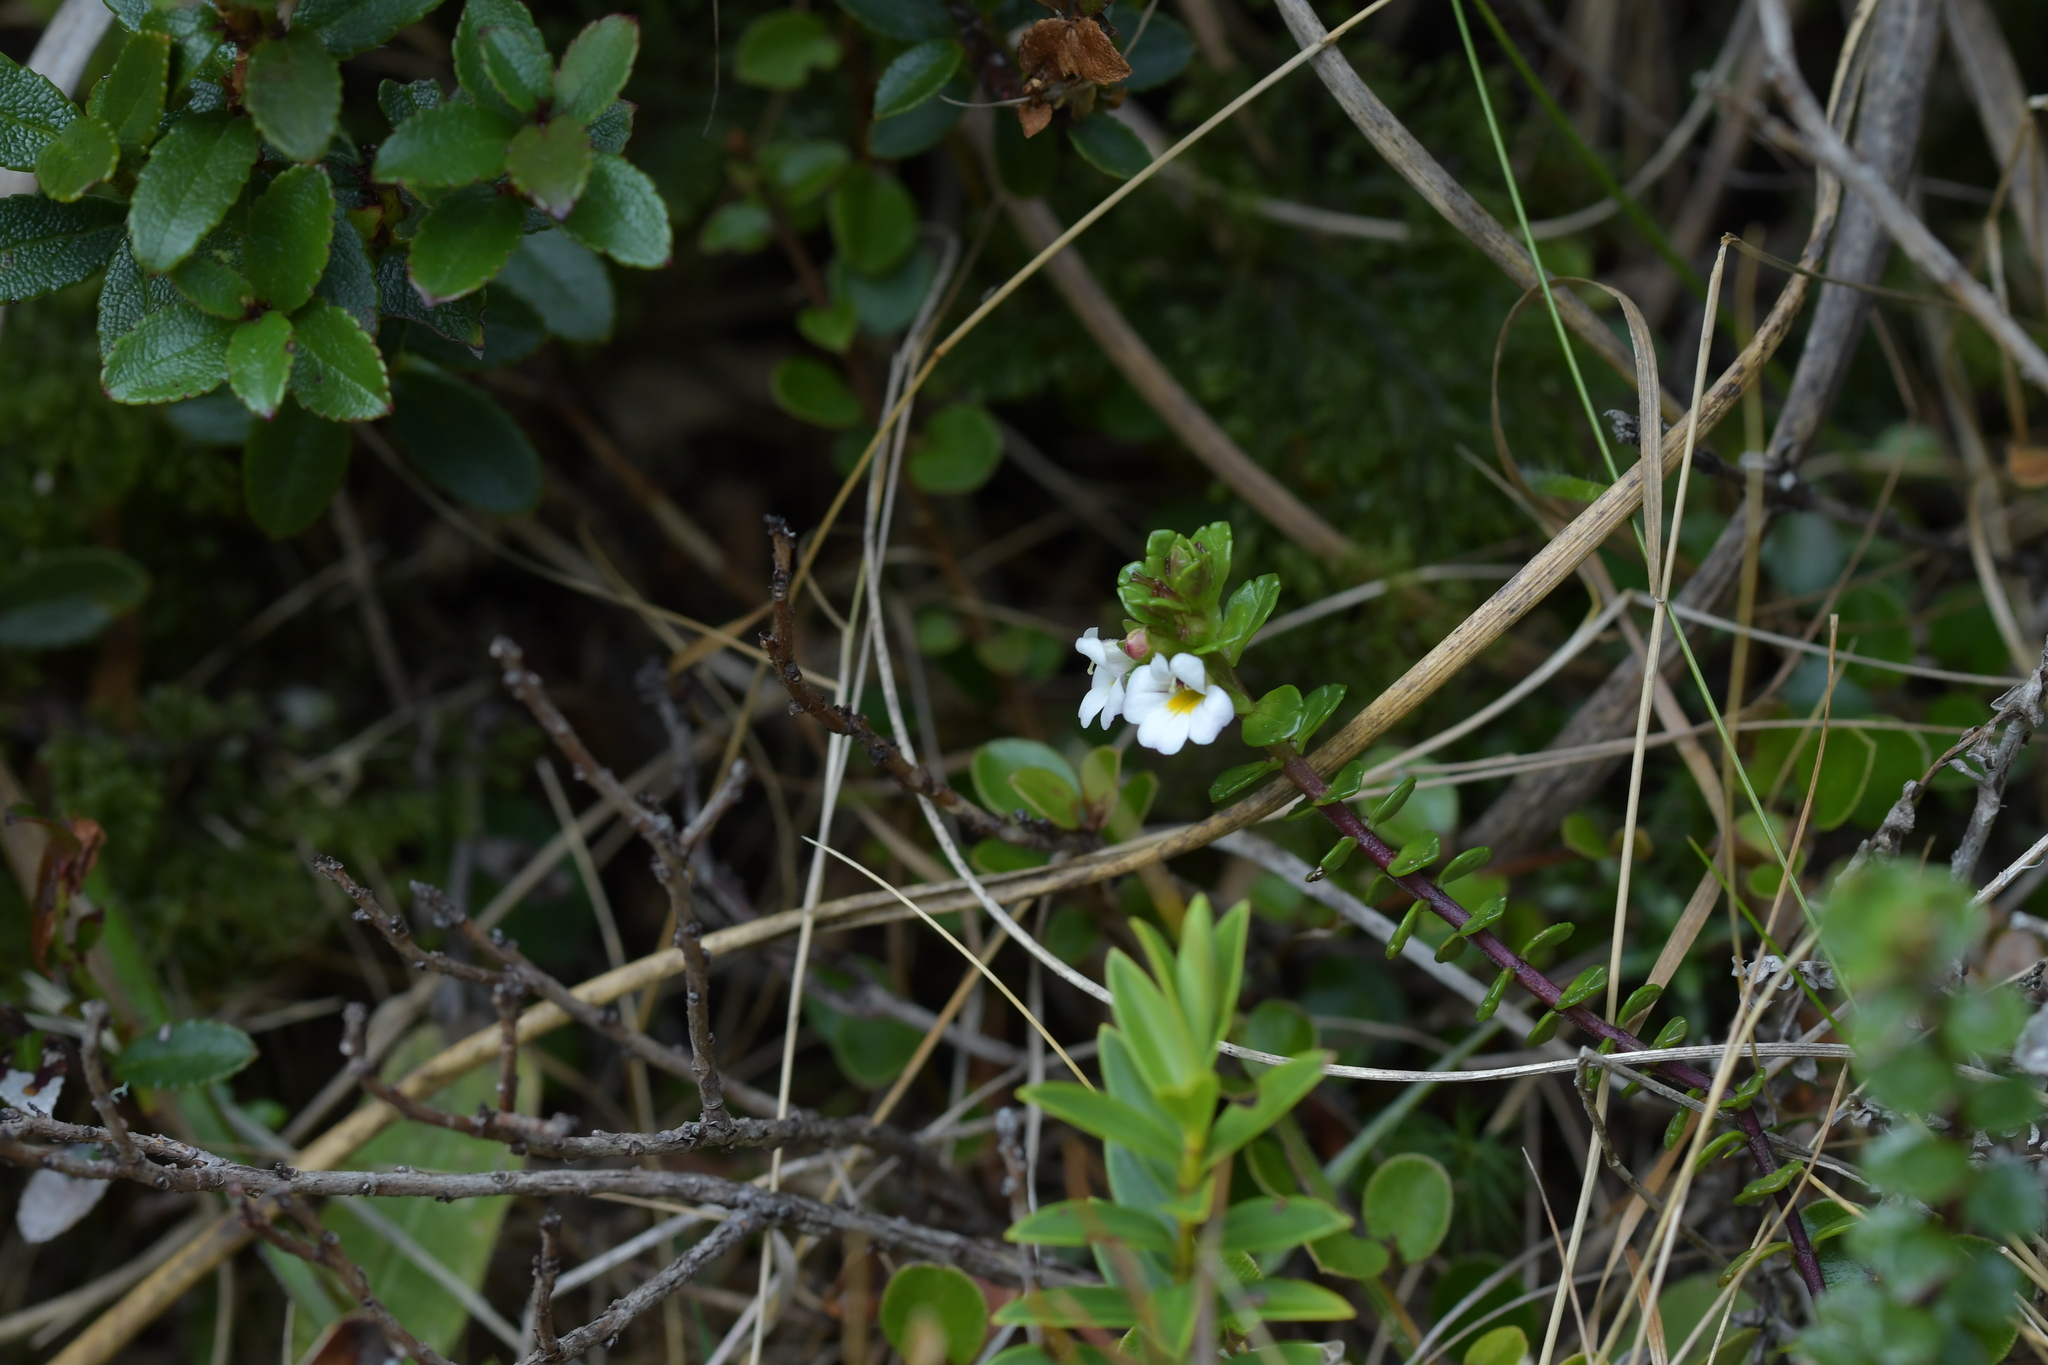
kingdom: Plantae
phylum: Tracheophyta
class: Magnoliopsida
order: Lamiales
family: Orobanchaceae
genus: Euphrasia
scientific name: Euphrasia monroi
